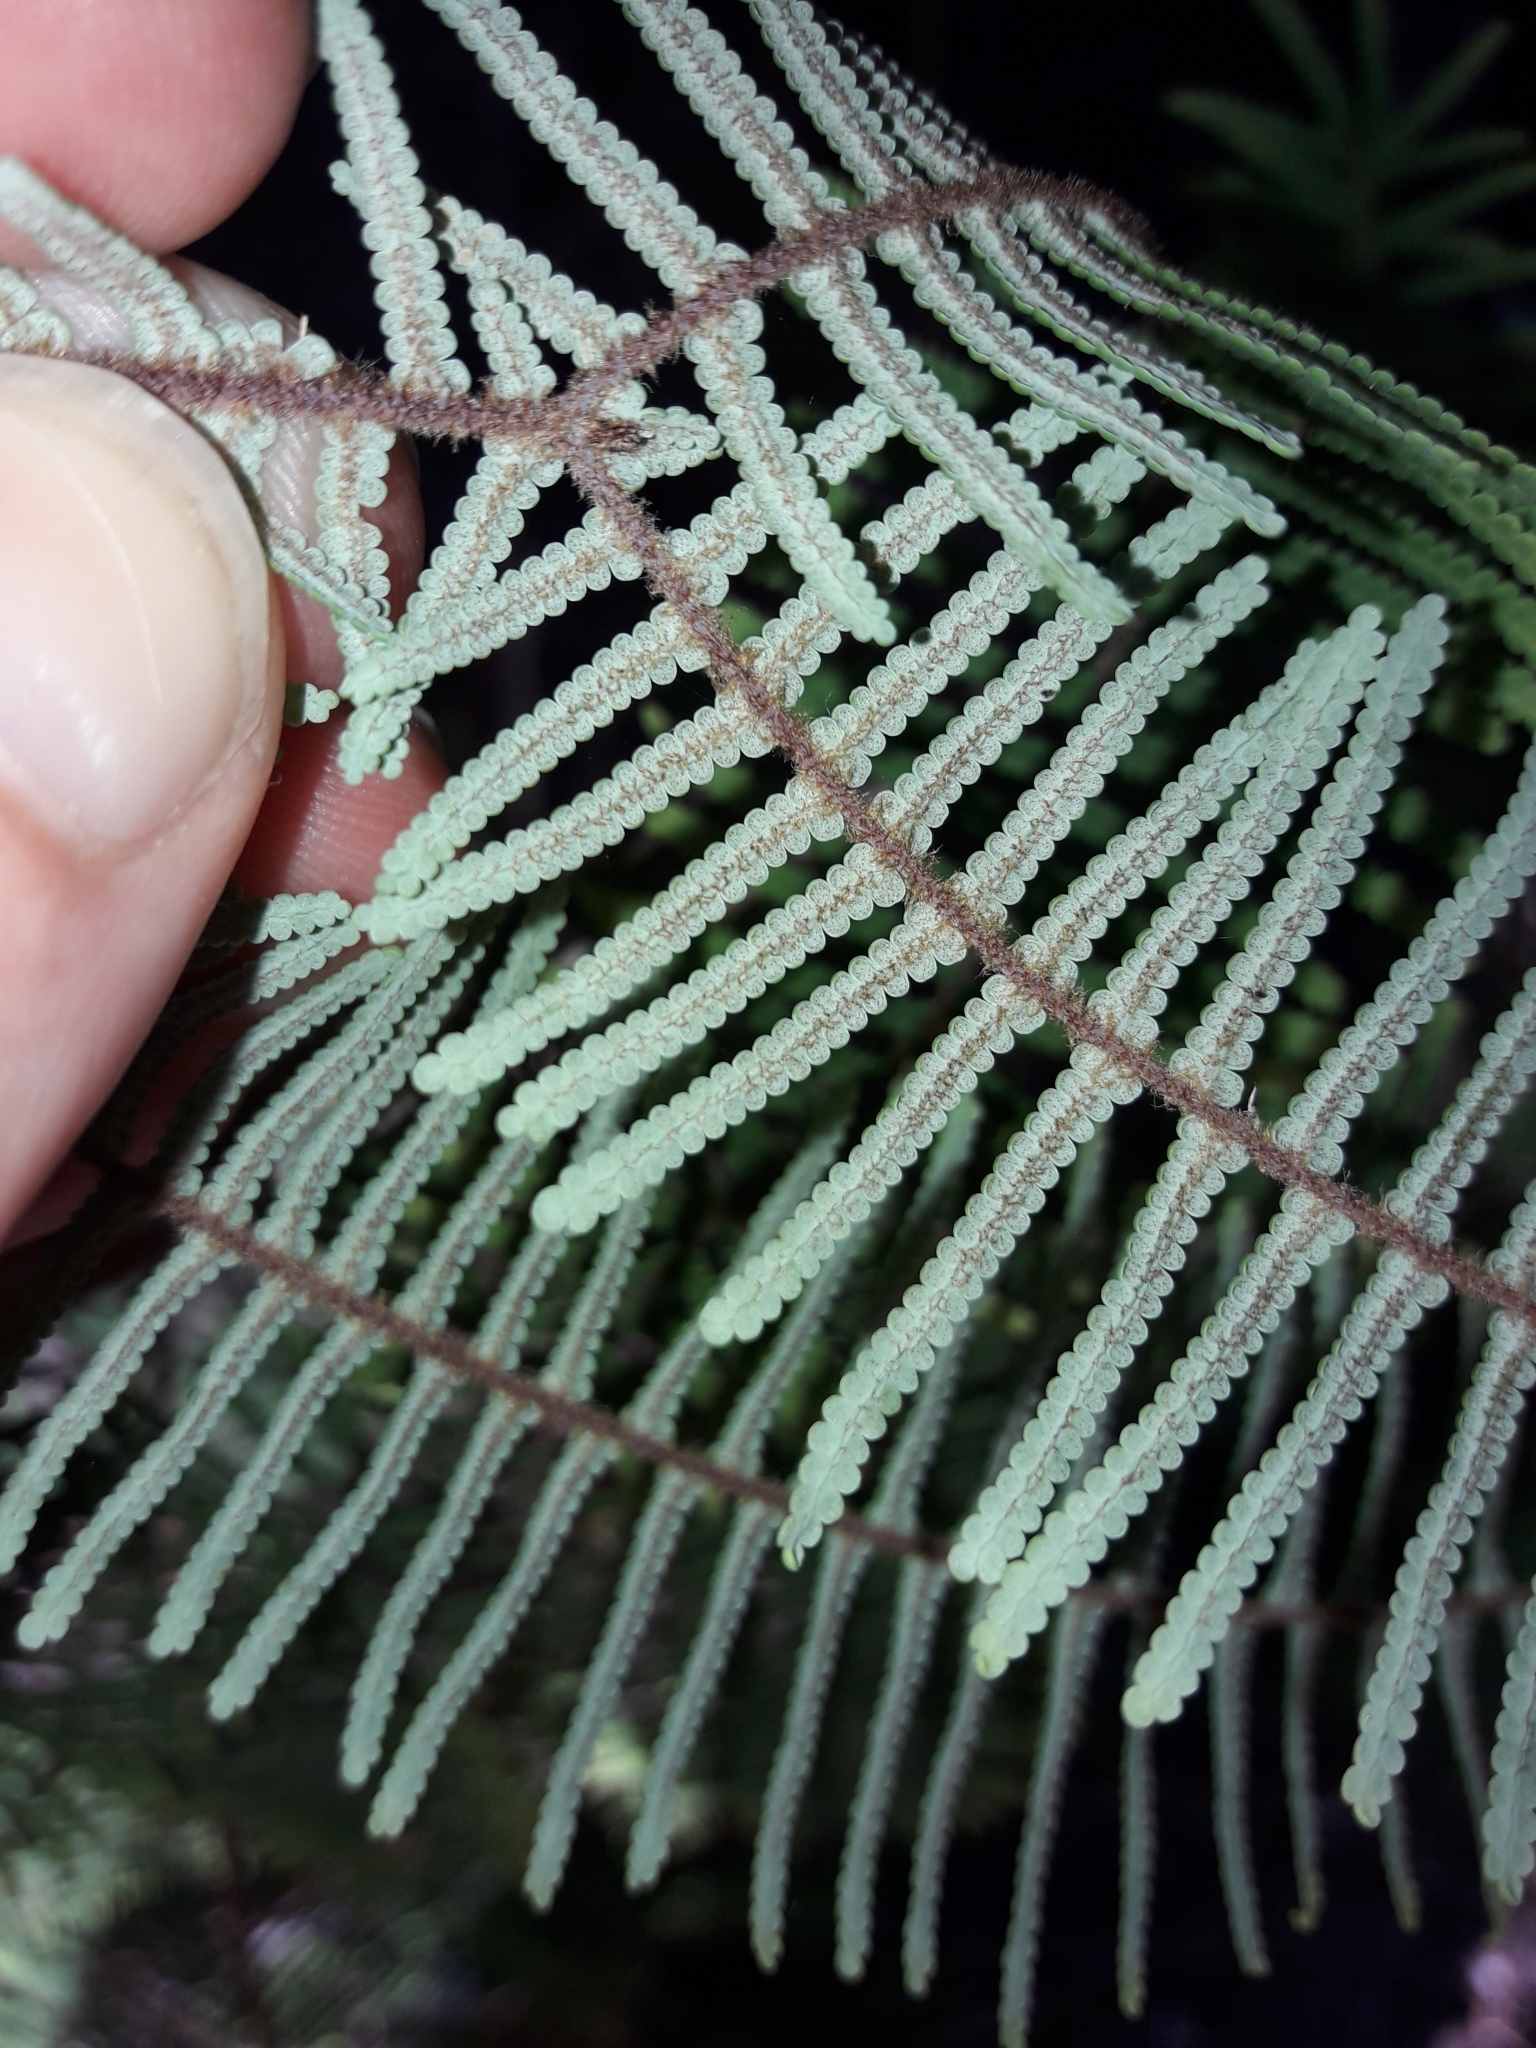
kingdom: Plantae
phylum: Tracheophyta
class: Polypodiopsida
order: Gleicheniales
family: Gleicheniaceae
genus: Gleichenia
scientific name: Gleichenia dicarpa
